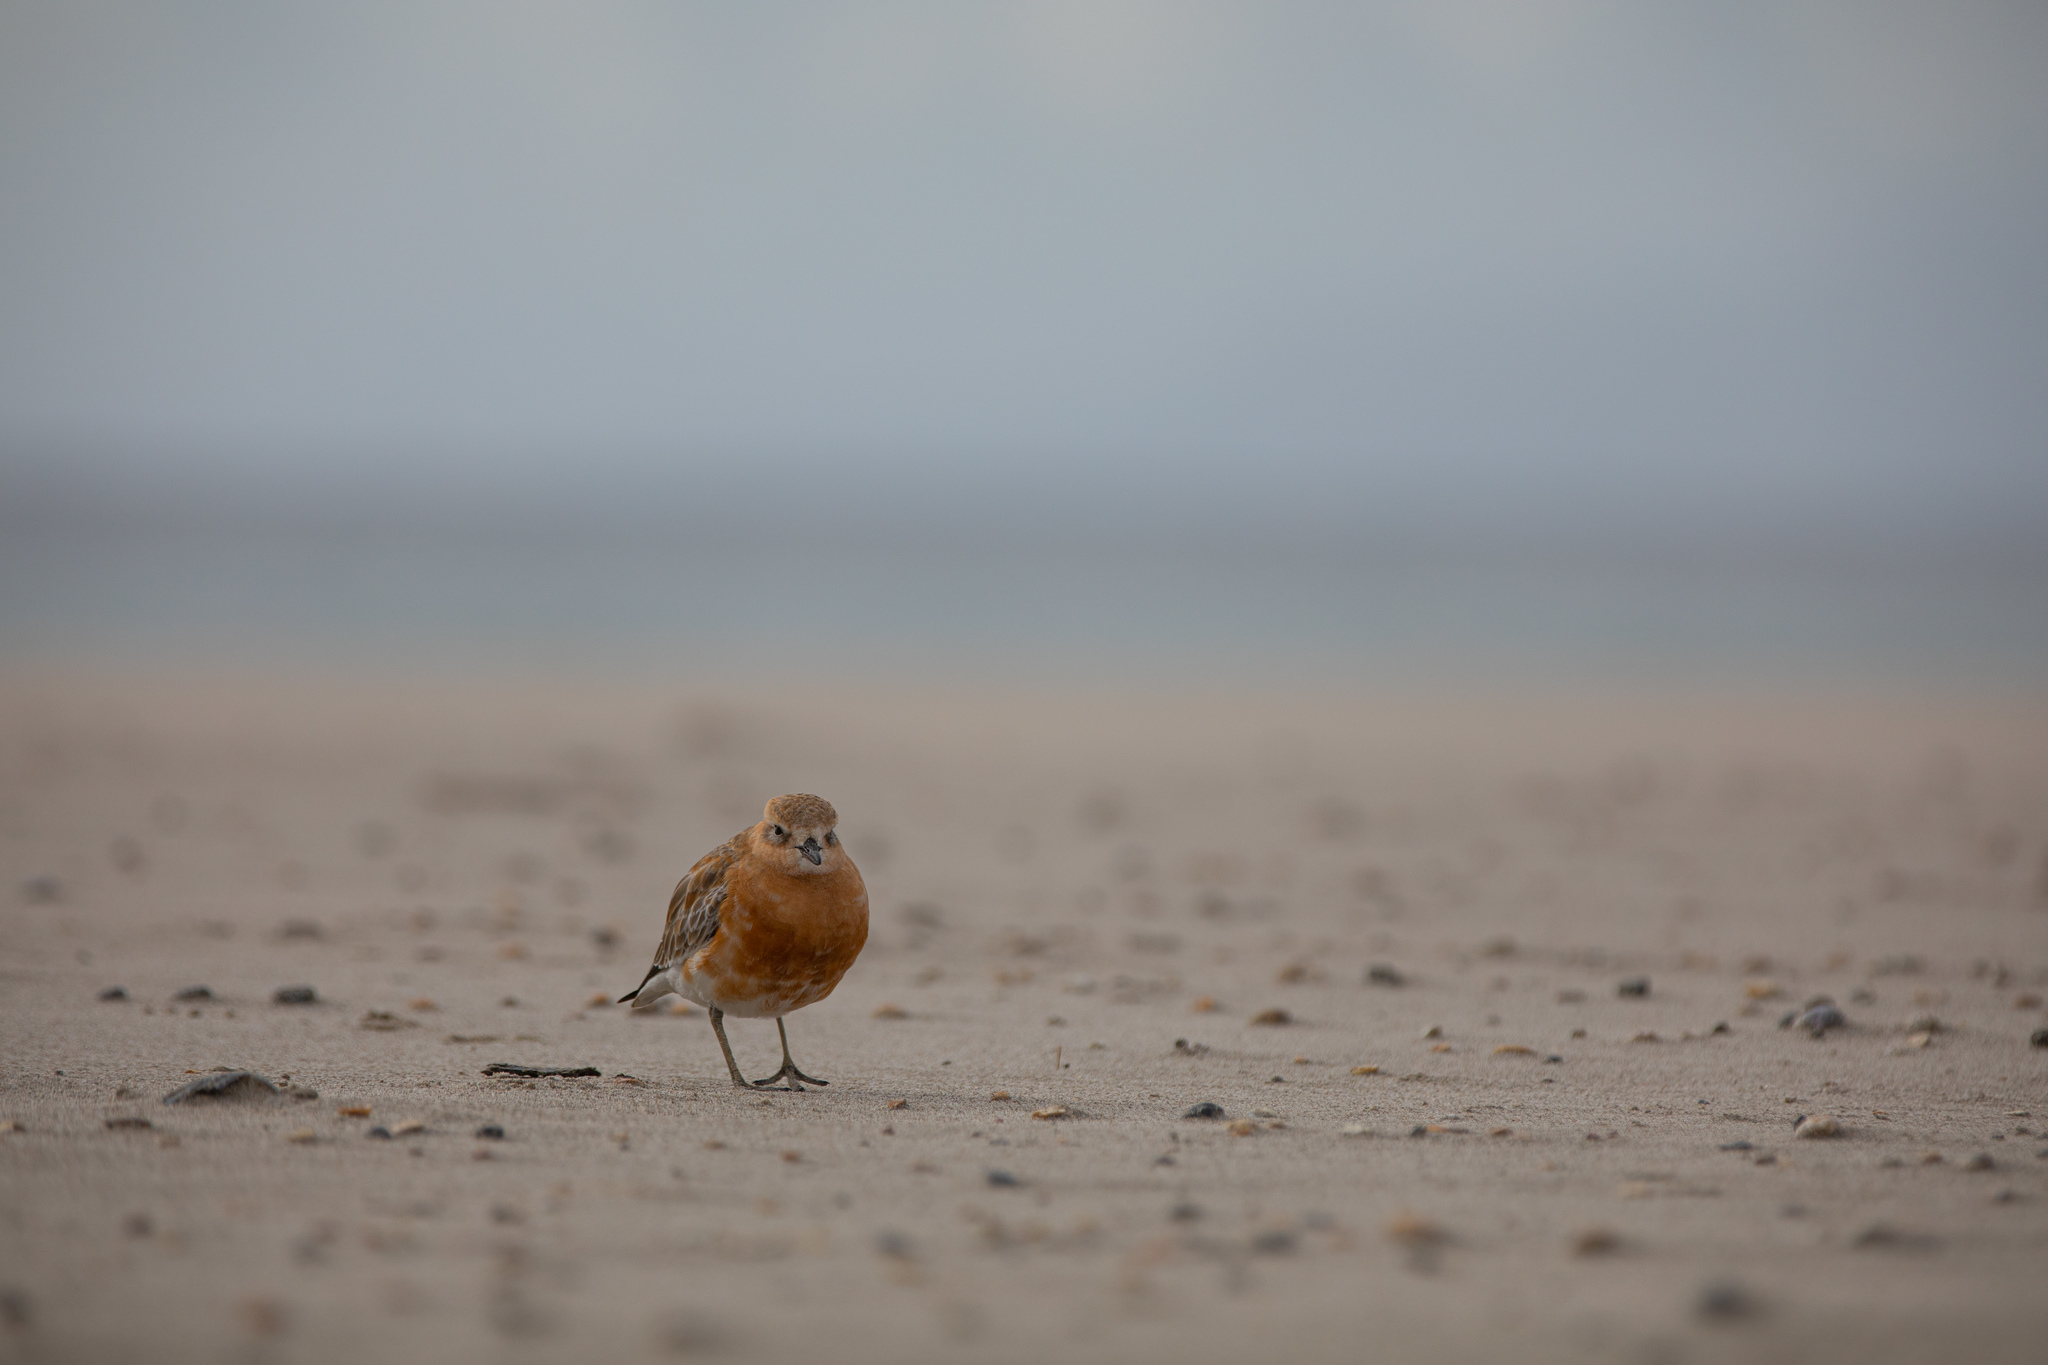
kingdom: Animalia
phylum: Chordata
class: Aves
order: Charadriiformes
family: Charadriidae
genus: Anarhynchus
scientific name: Anarhynchus
